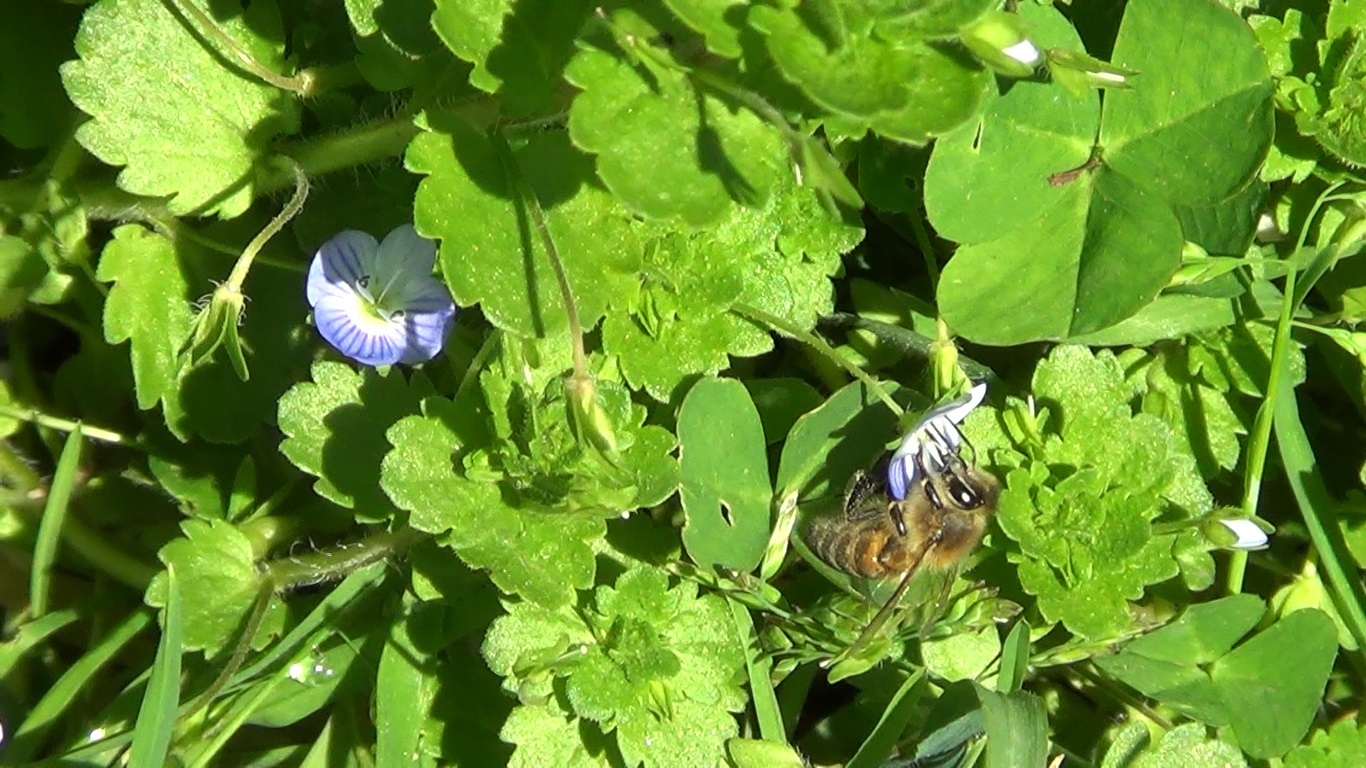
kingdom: Animalia
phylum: Arthropoda
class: Insecta
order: Hymenoptera
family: Apidae
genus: Apis
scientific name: Apis mellifera
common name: Honey bee
